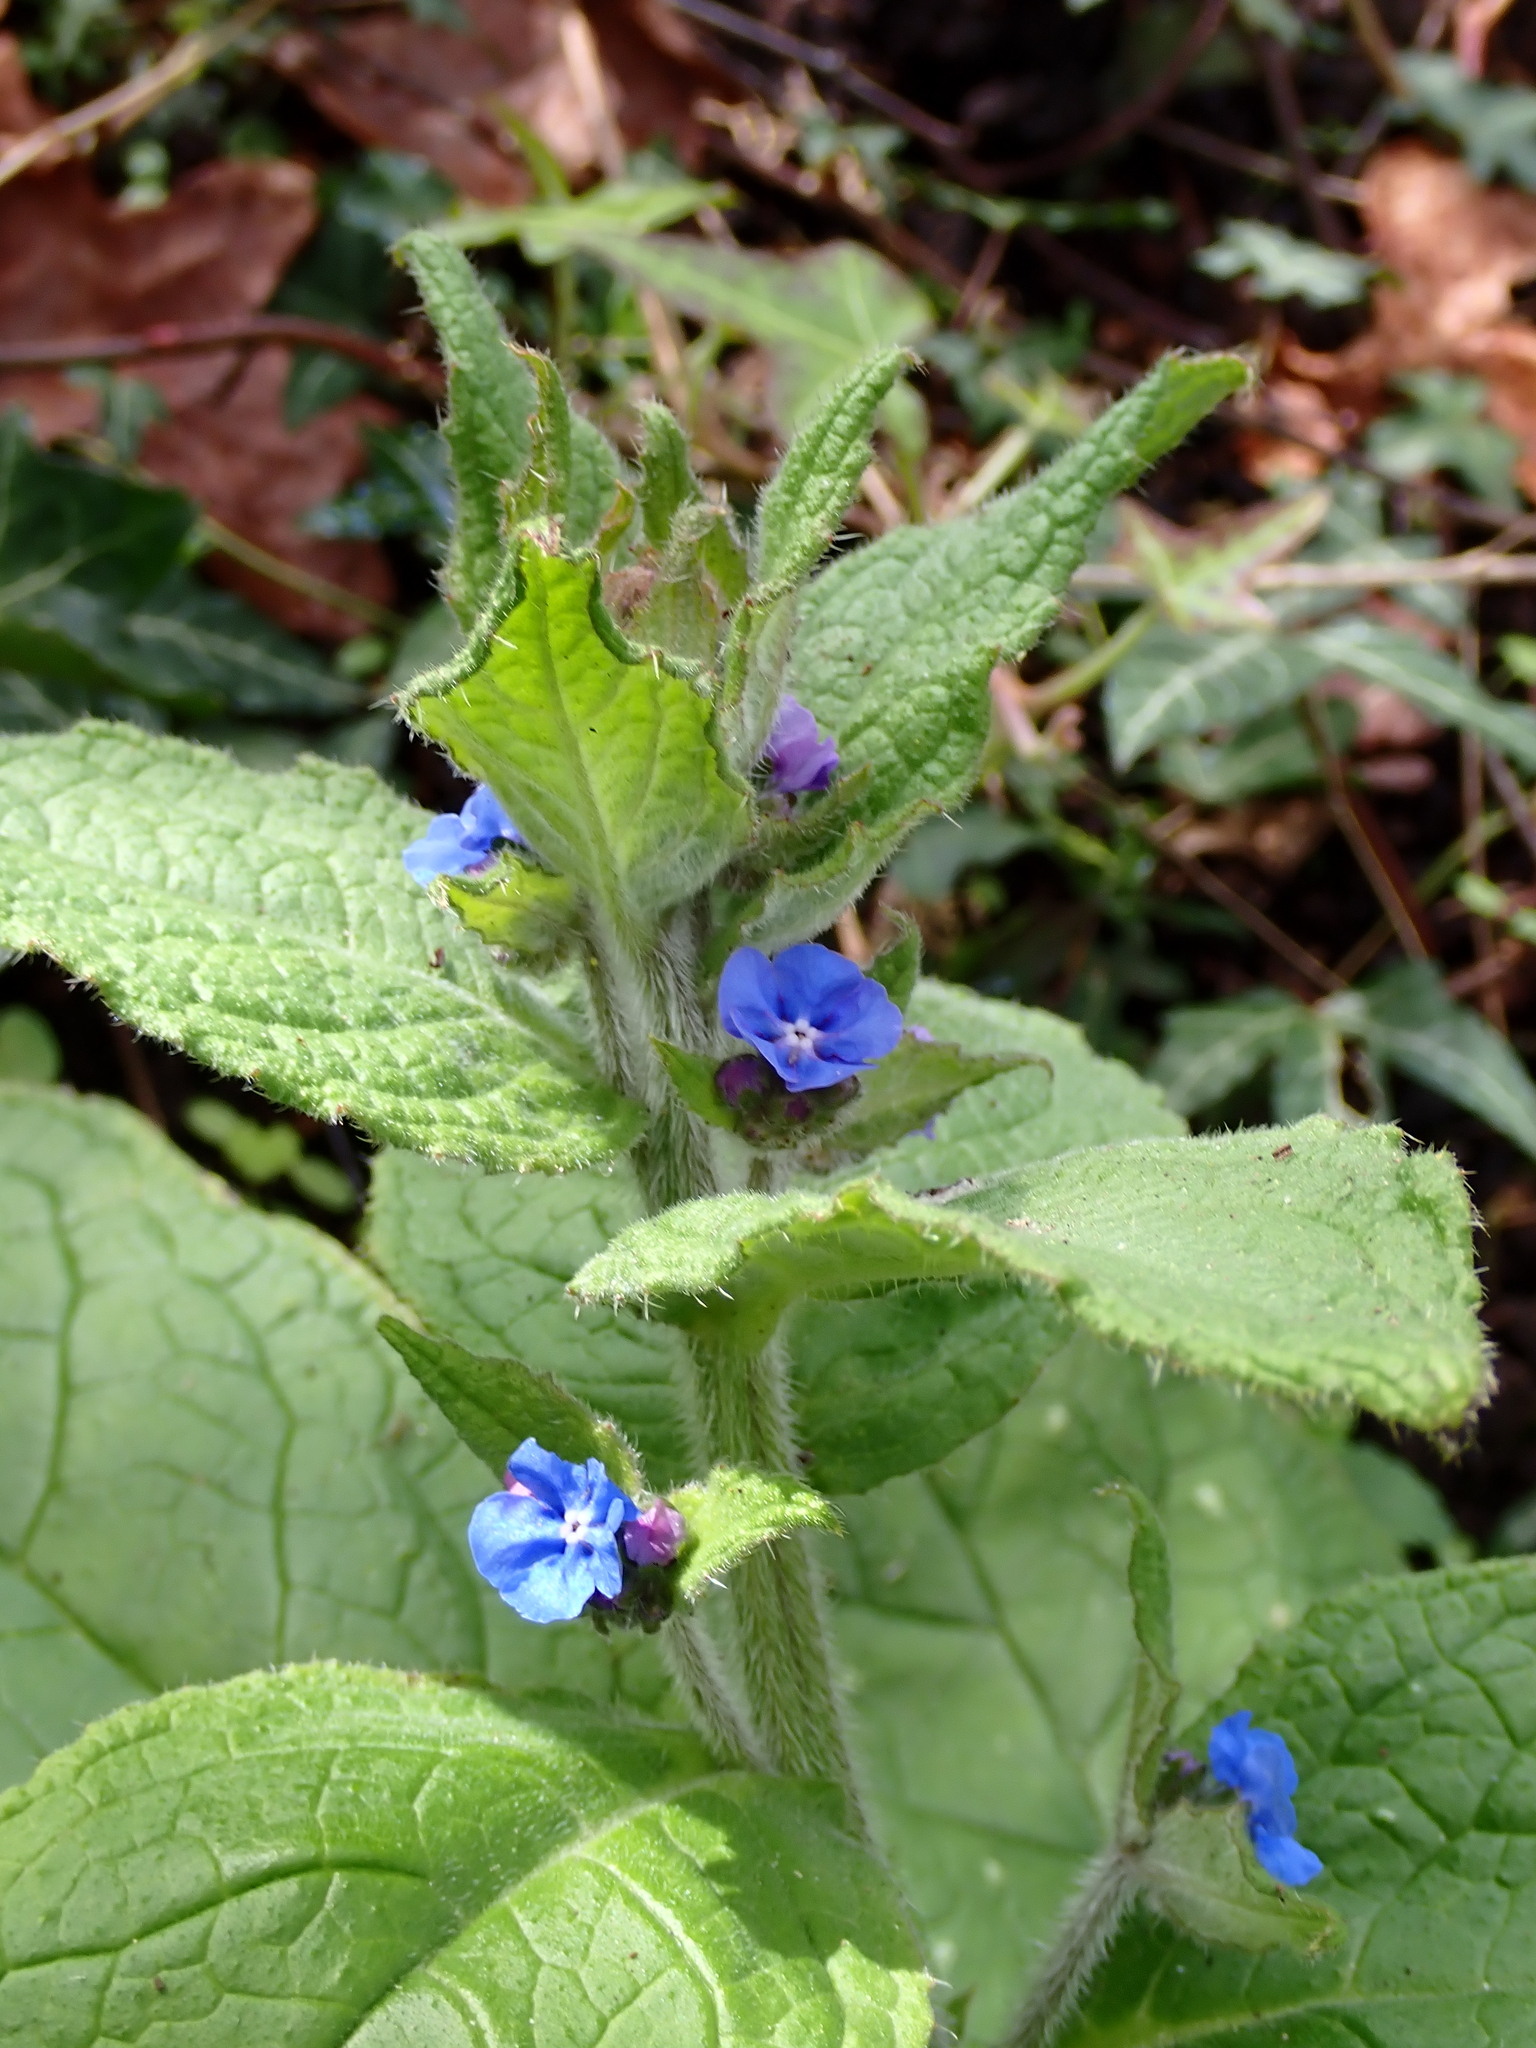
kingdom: Plantae
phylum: Tracheophyta
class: Magnoliopsida
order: Boraginales
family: Boraginaceae
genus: Pentaglottis
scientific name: Pentaglottis sempervirens
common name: Green alkanet
